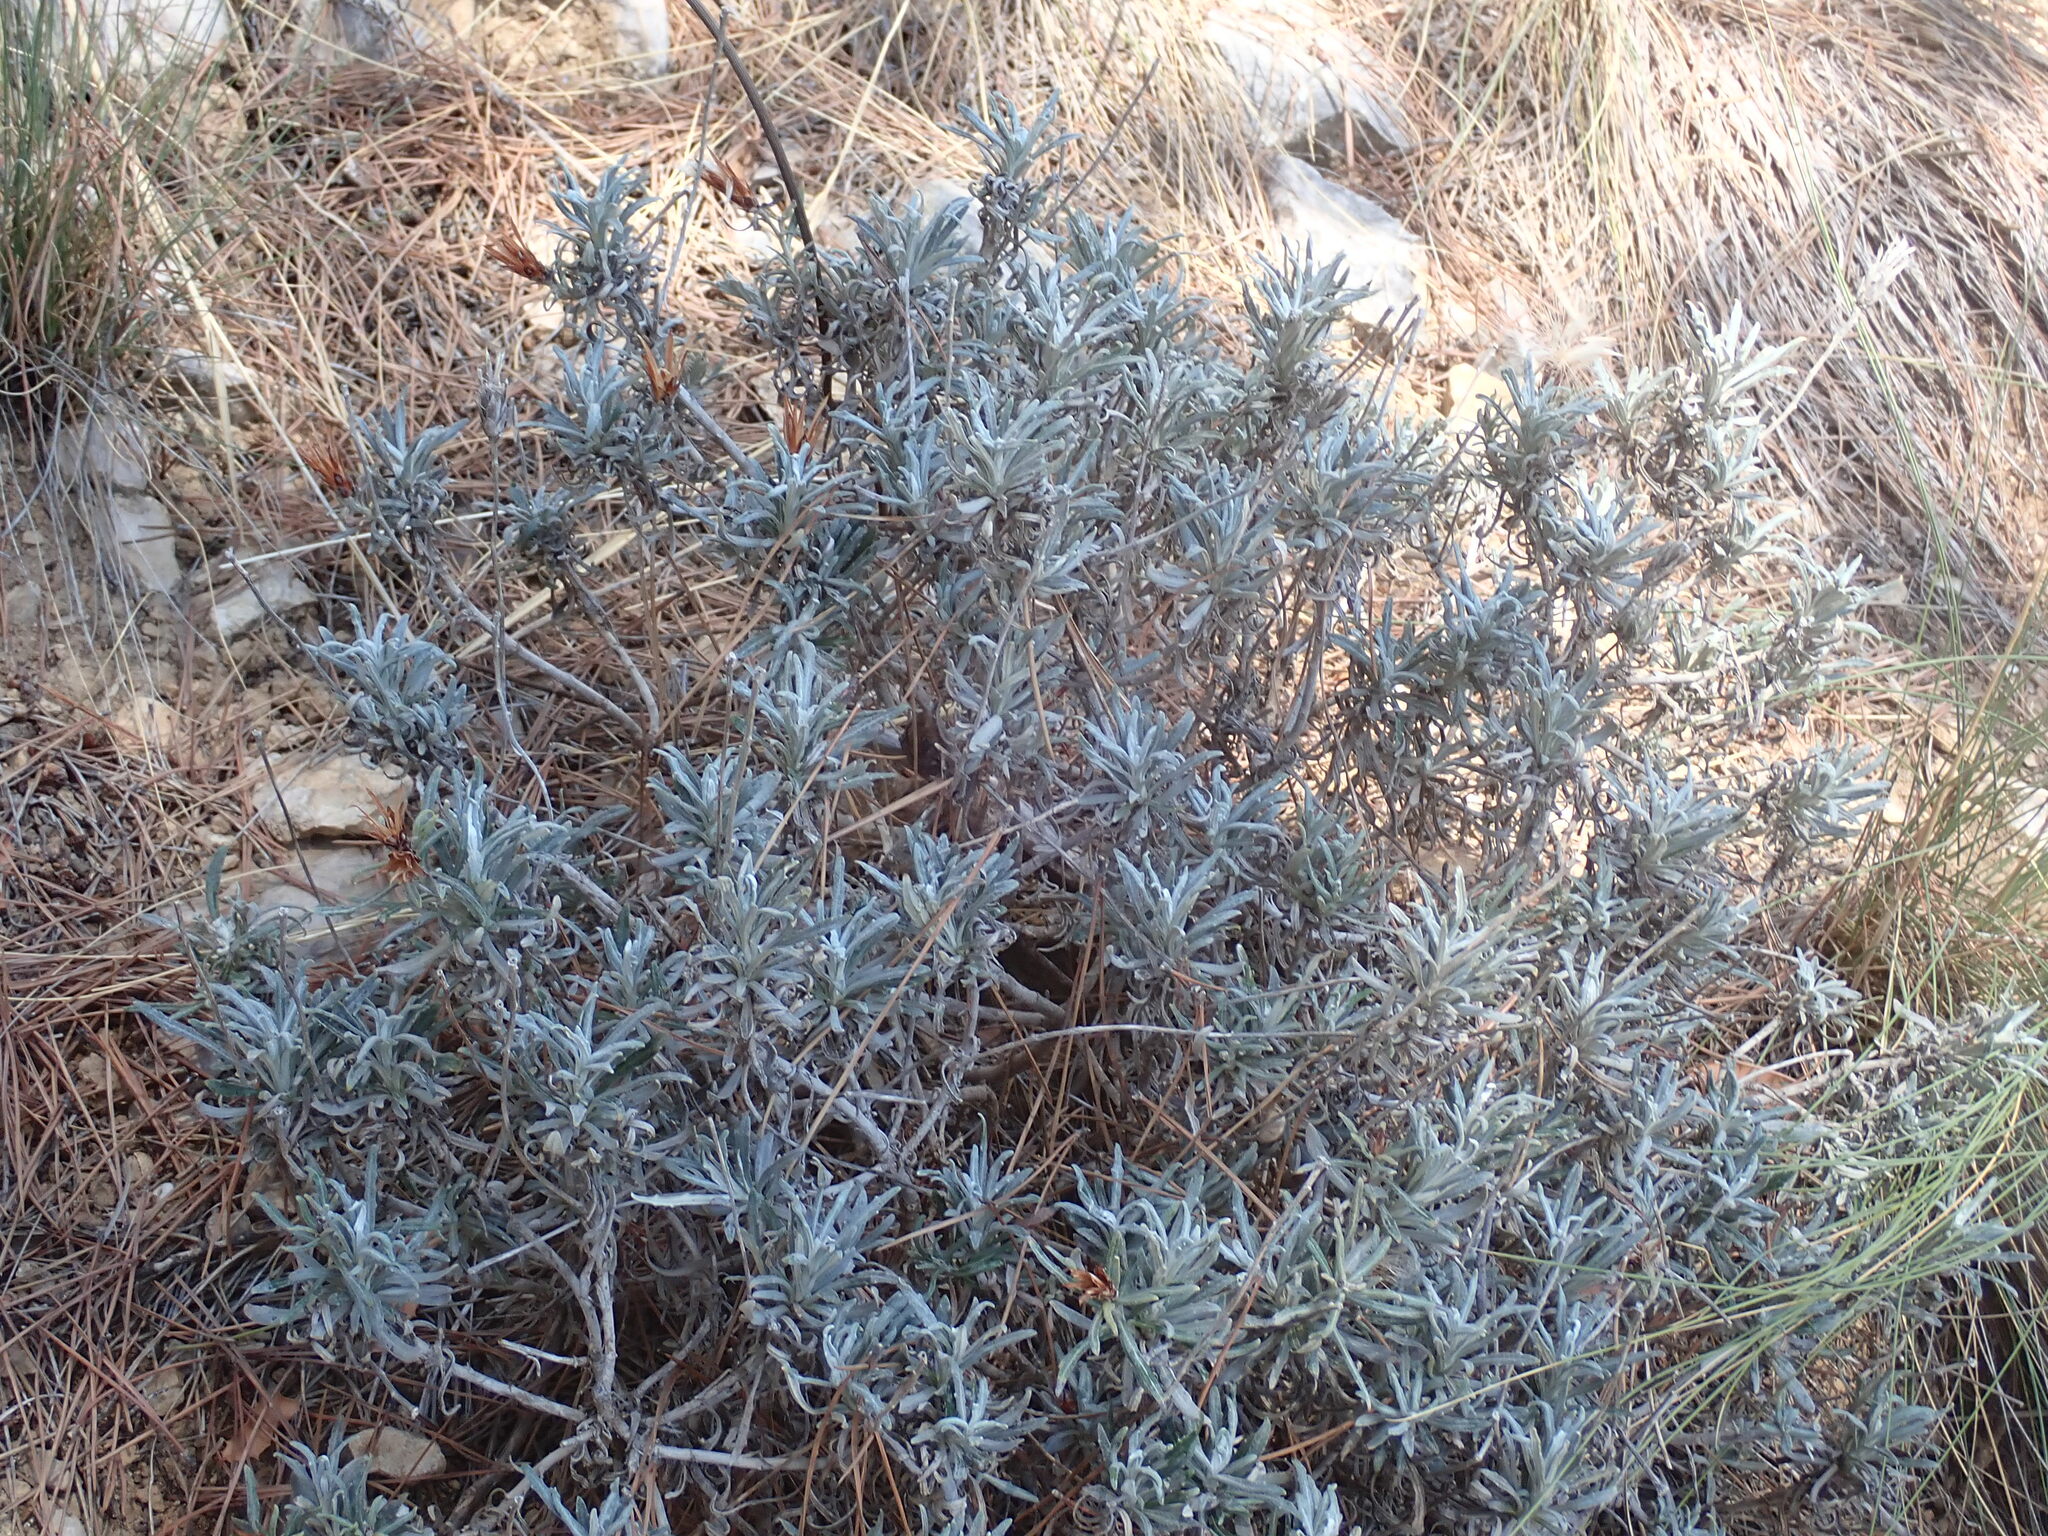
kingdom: Plantae
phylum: Tracheophyta
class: Magnoliopsida
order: Asterales
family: Asteraceae
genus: Staehelina
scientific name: Staehelina dubia
